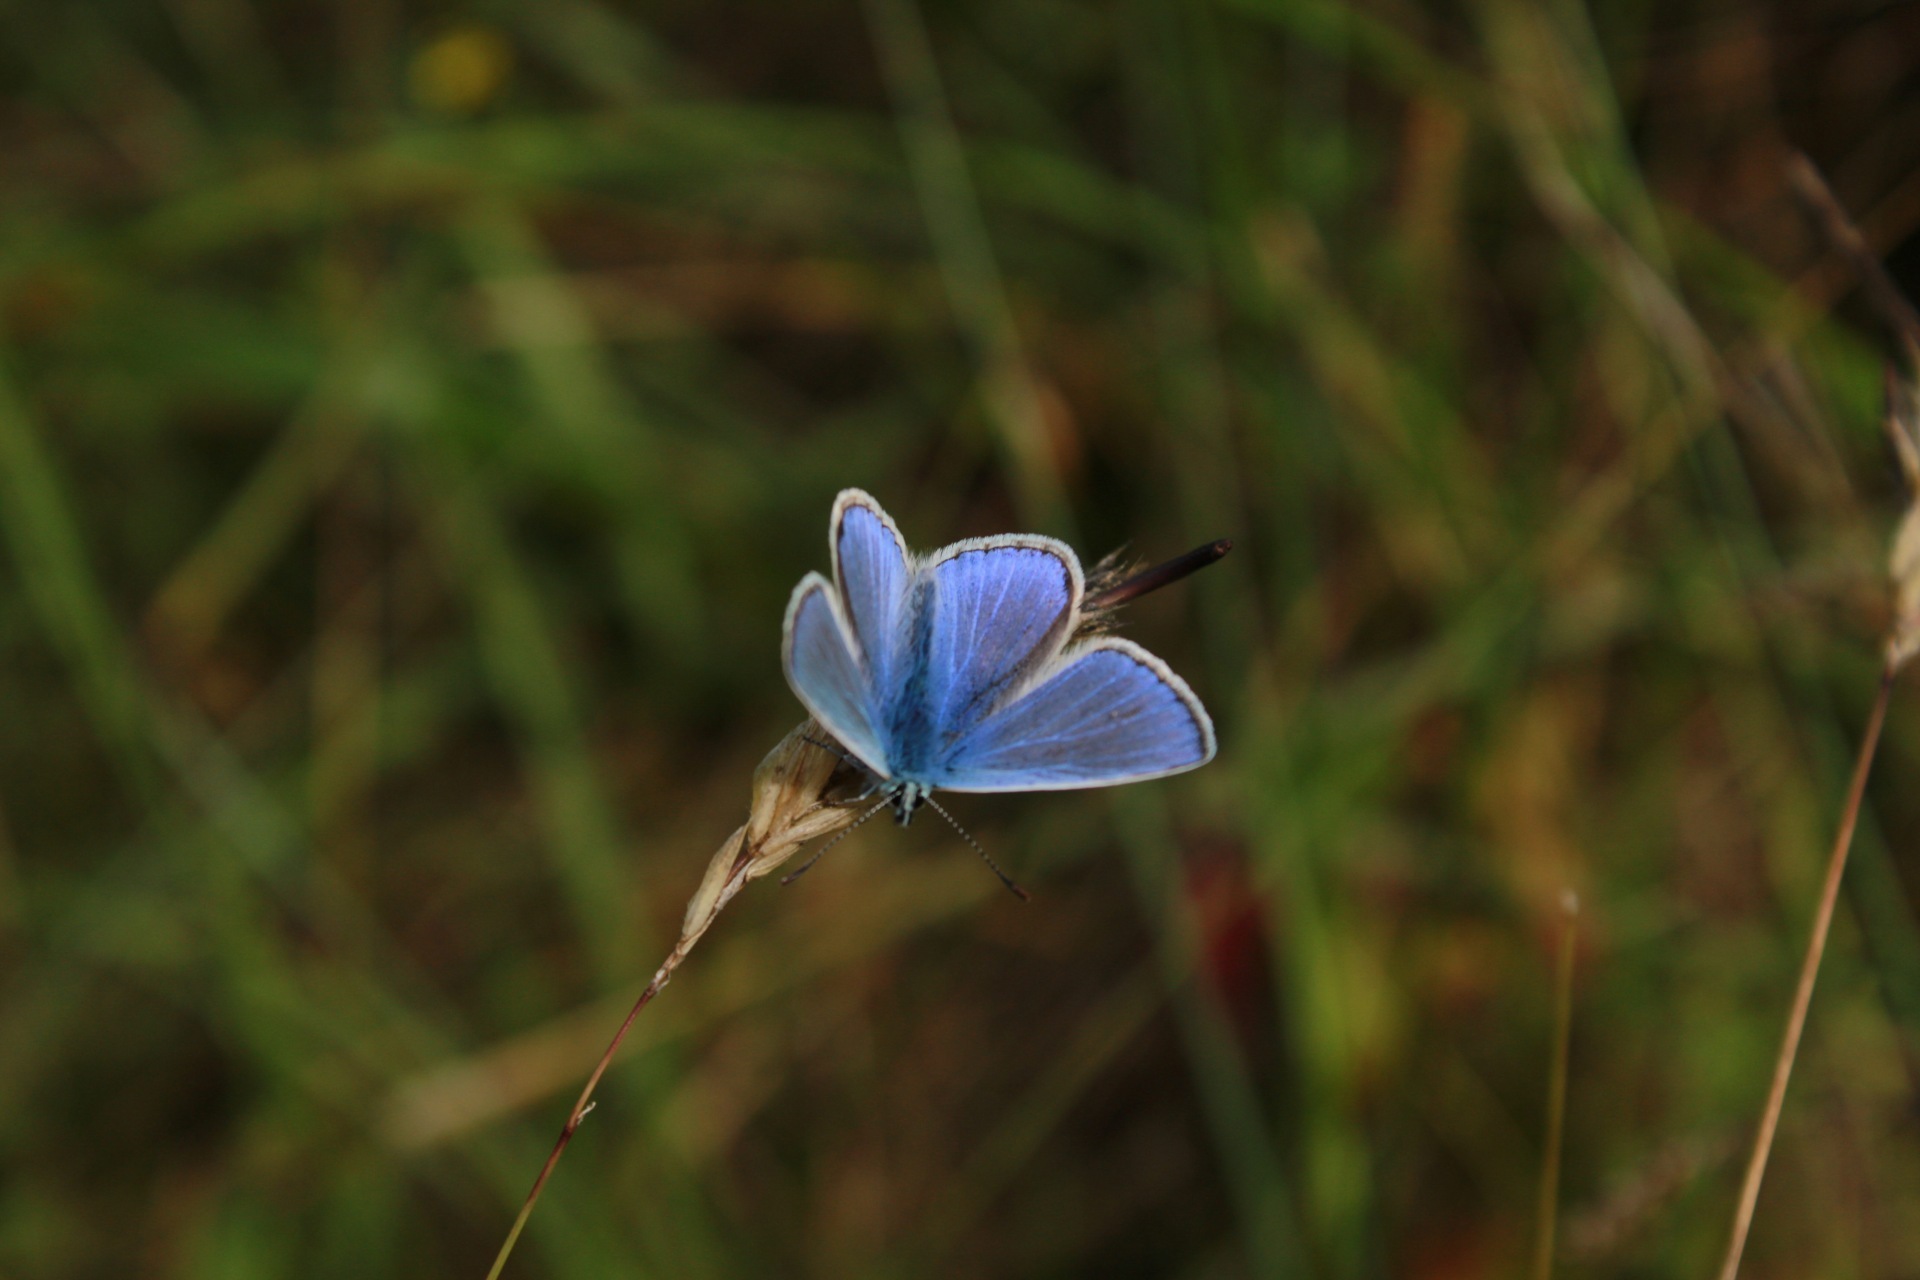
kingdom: Animalia
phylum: Arthropoda
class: Insecta
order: Lepidoptera
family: Lycaenidae
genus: Polyommatus
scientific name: Polyommatus icarus
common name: Common blue
